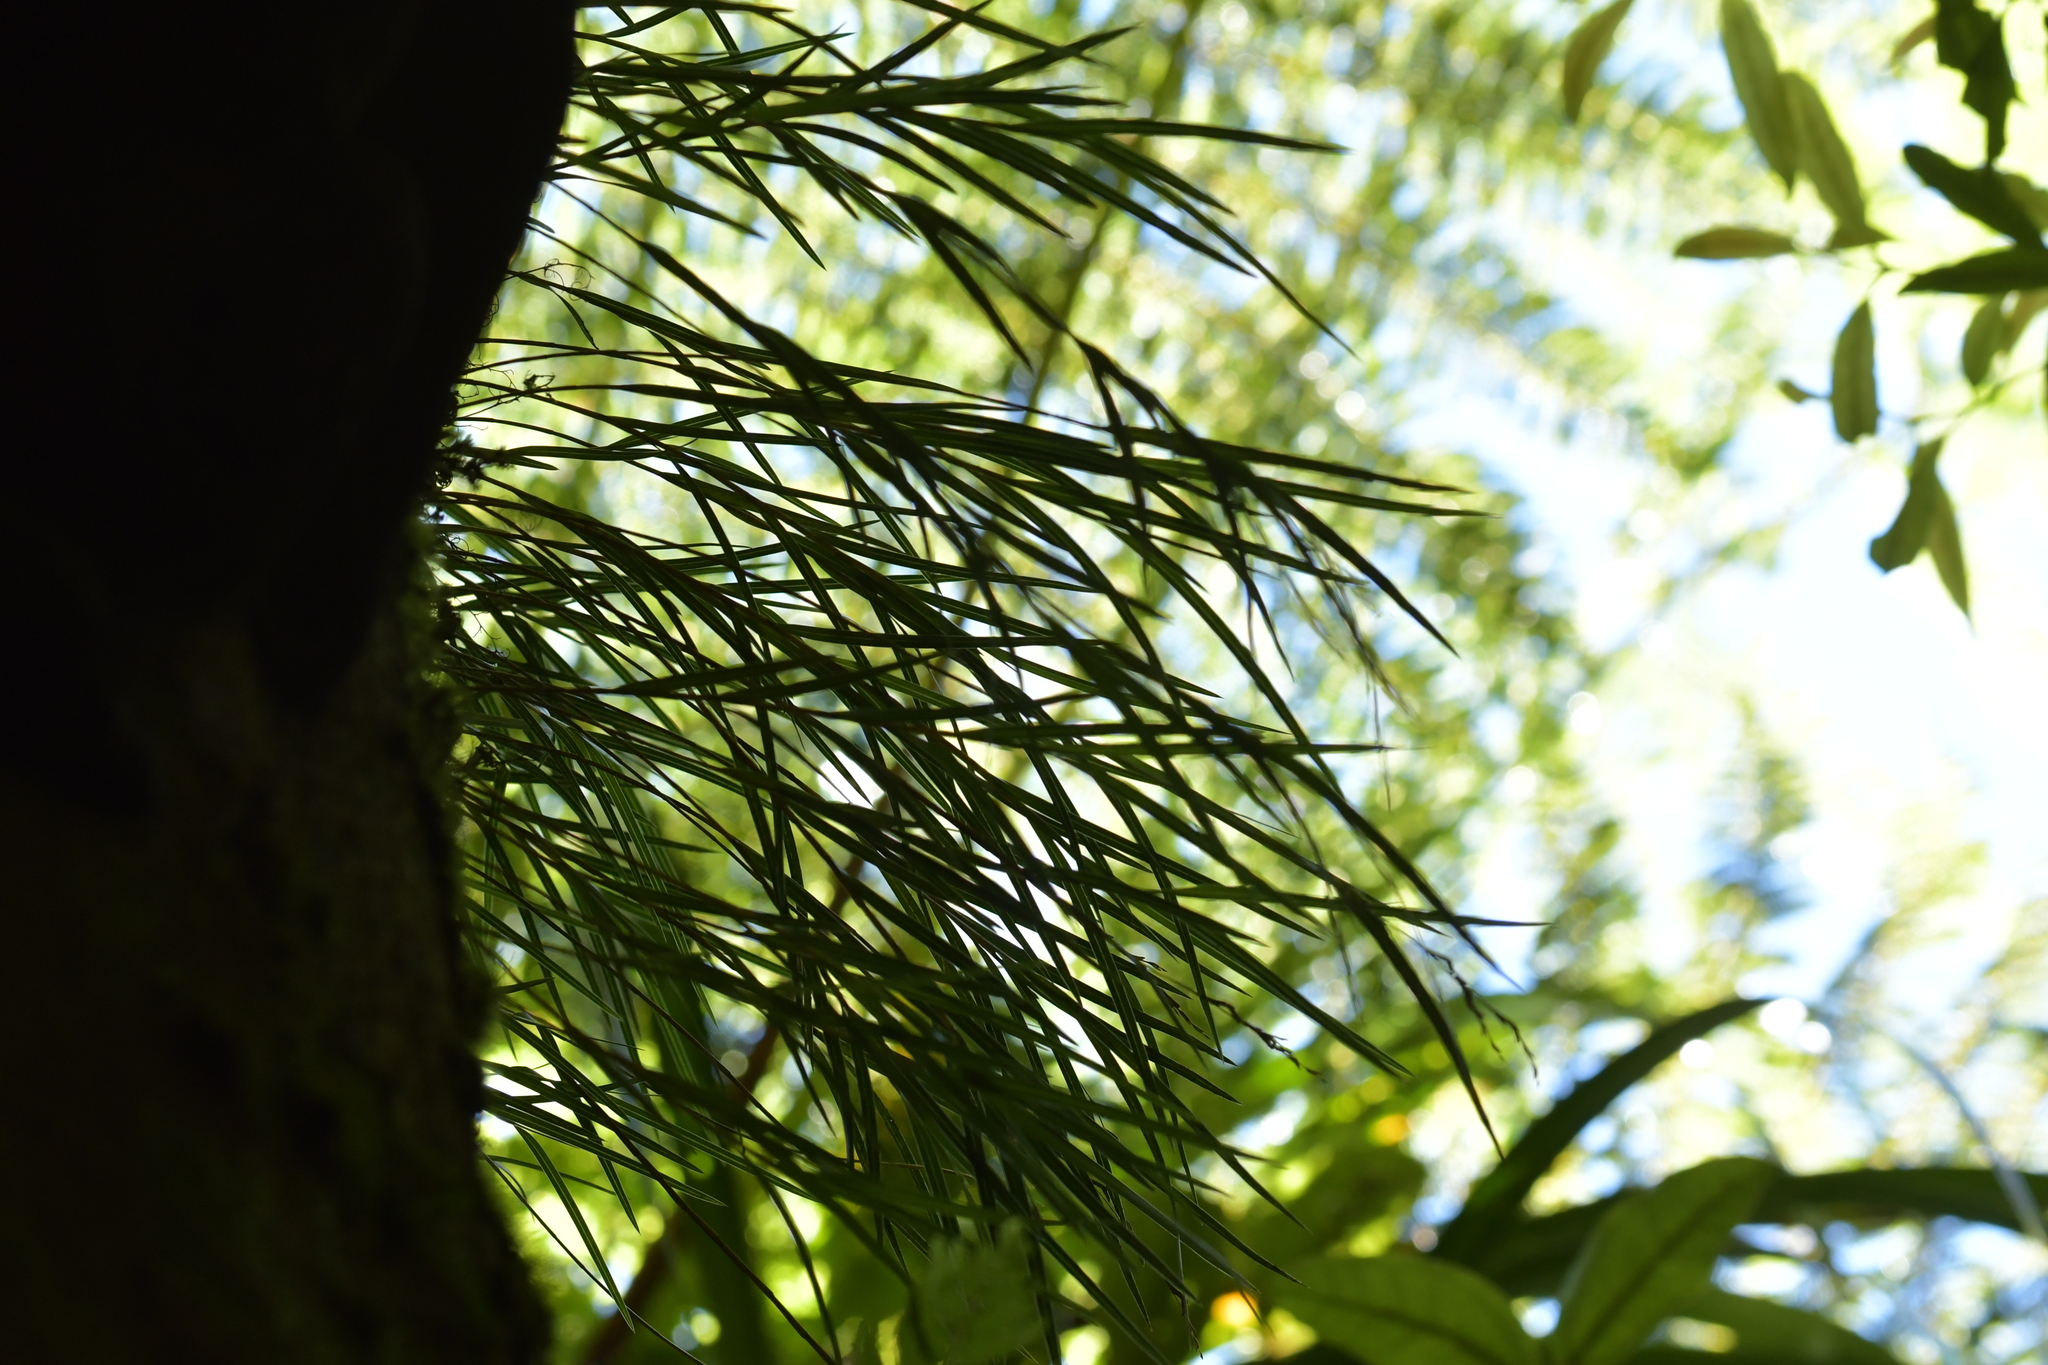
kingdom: Plantae
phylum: Tracheophyta
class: Liliopsida
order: Asparagales
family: Orchidaceae
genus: Earina
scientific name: Earina mucronata
